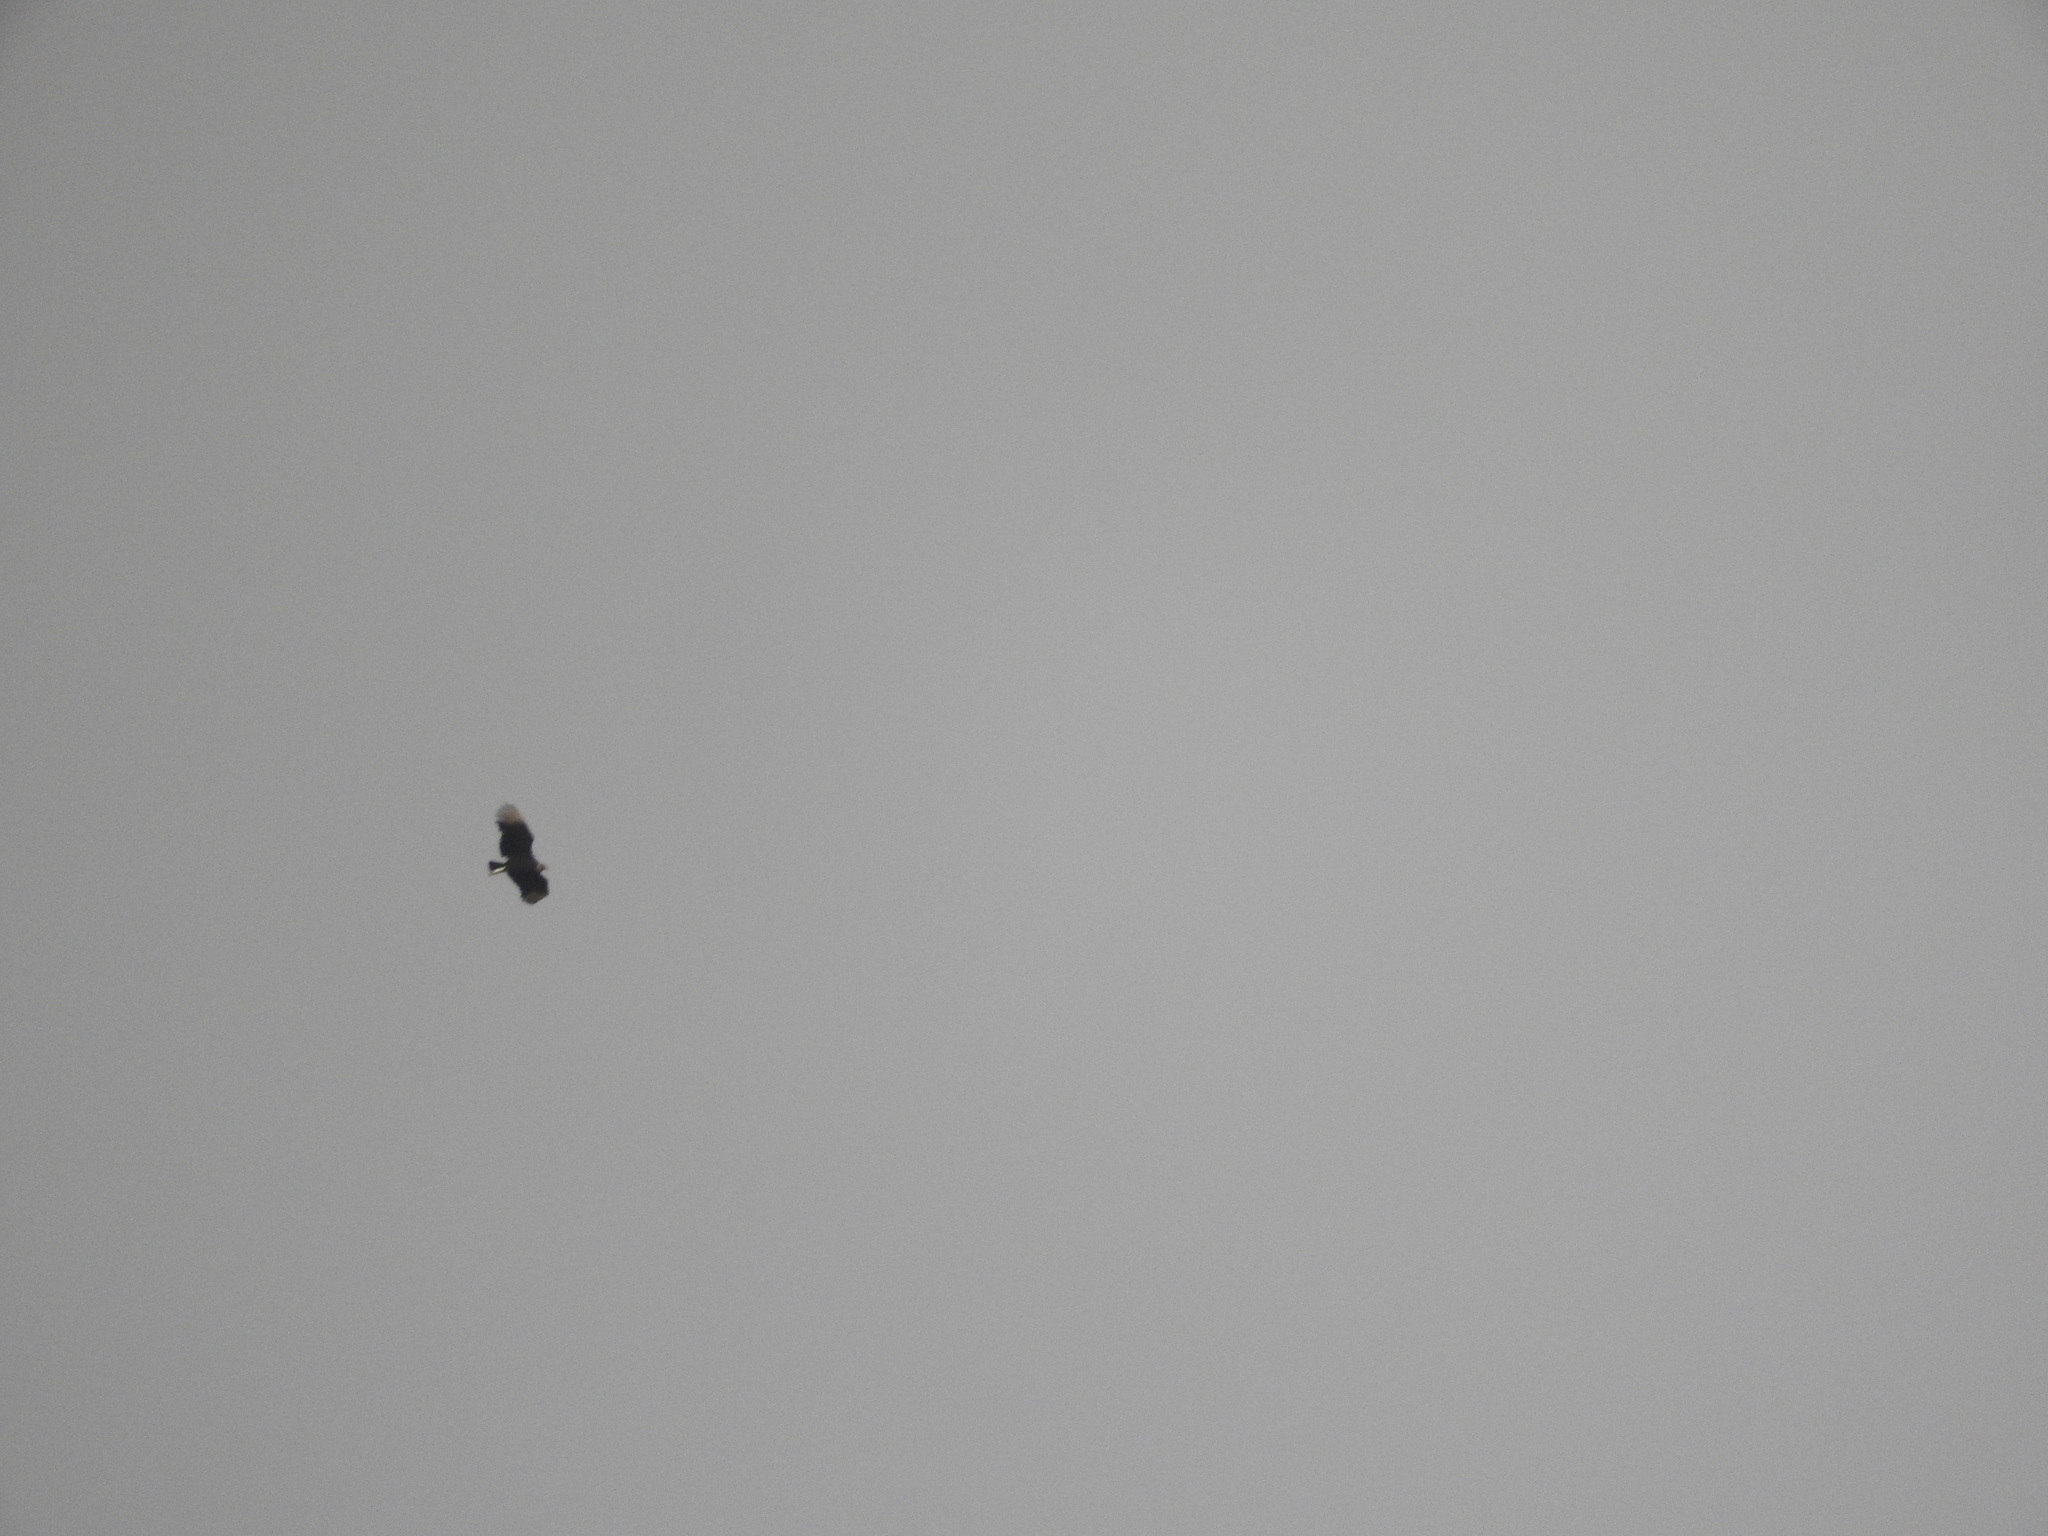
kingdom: Animalia
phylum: Chordata
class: Aves
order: Accipitriformes
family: Cathartidae
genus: Coragyps
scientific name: Coragyps atratus
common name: Black vulture
